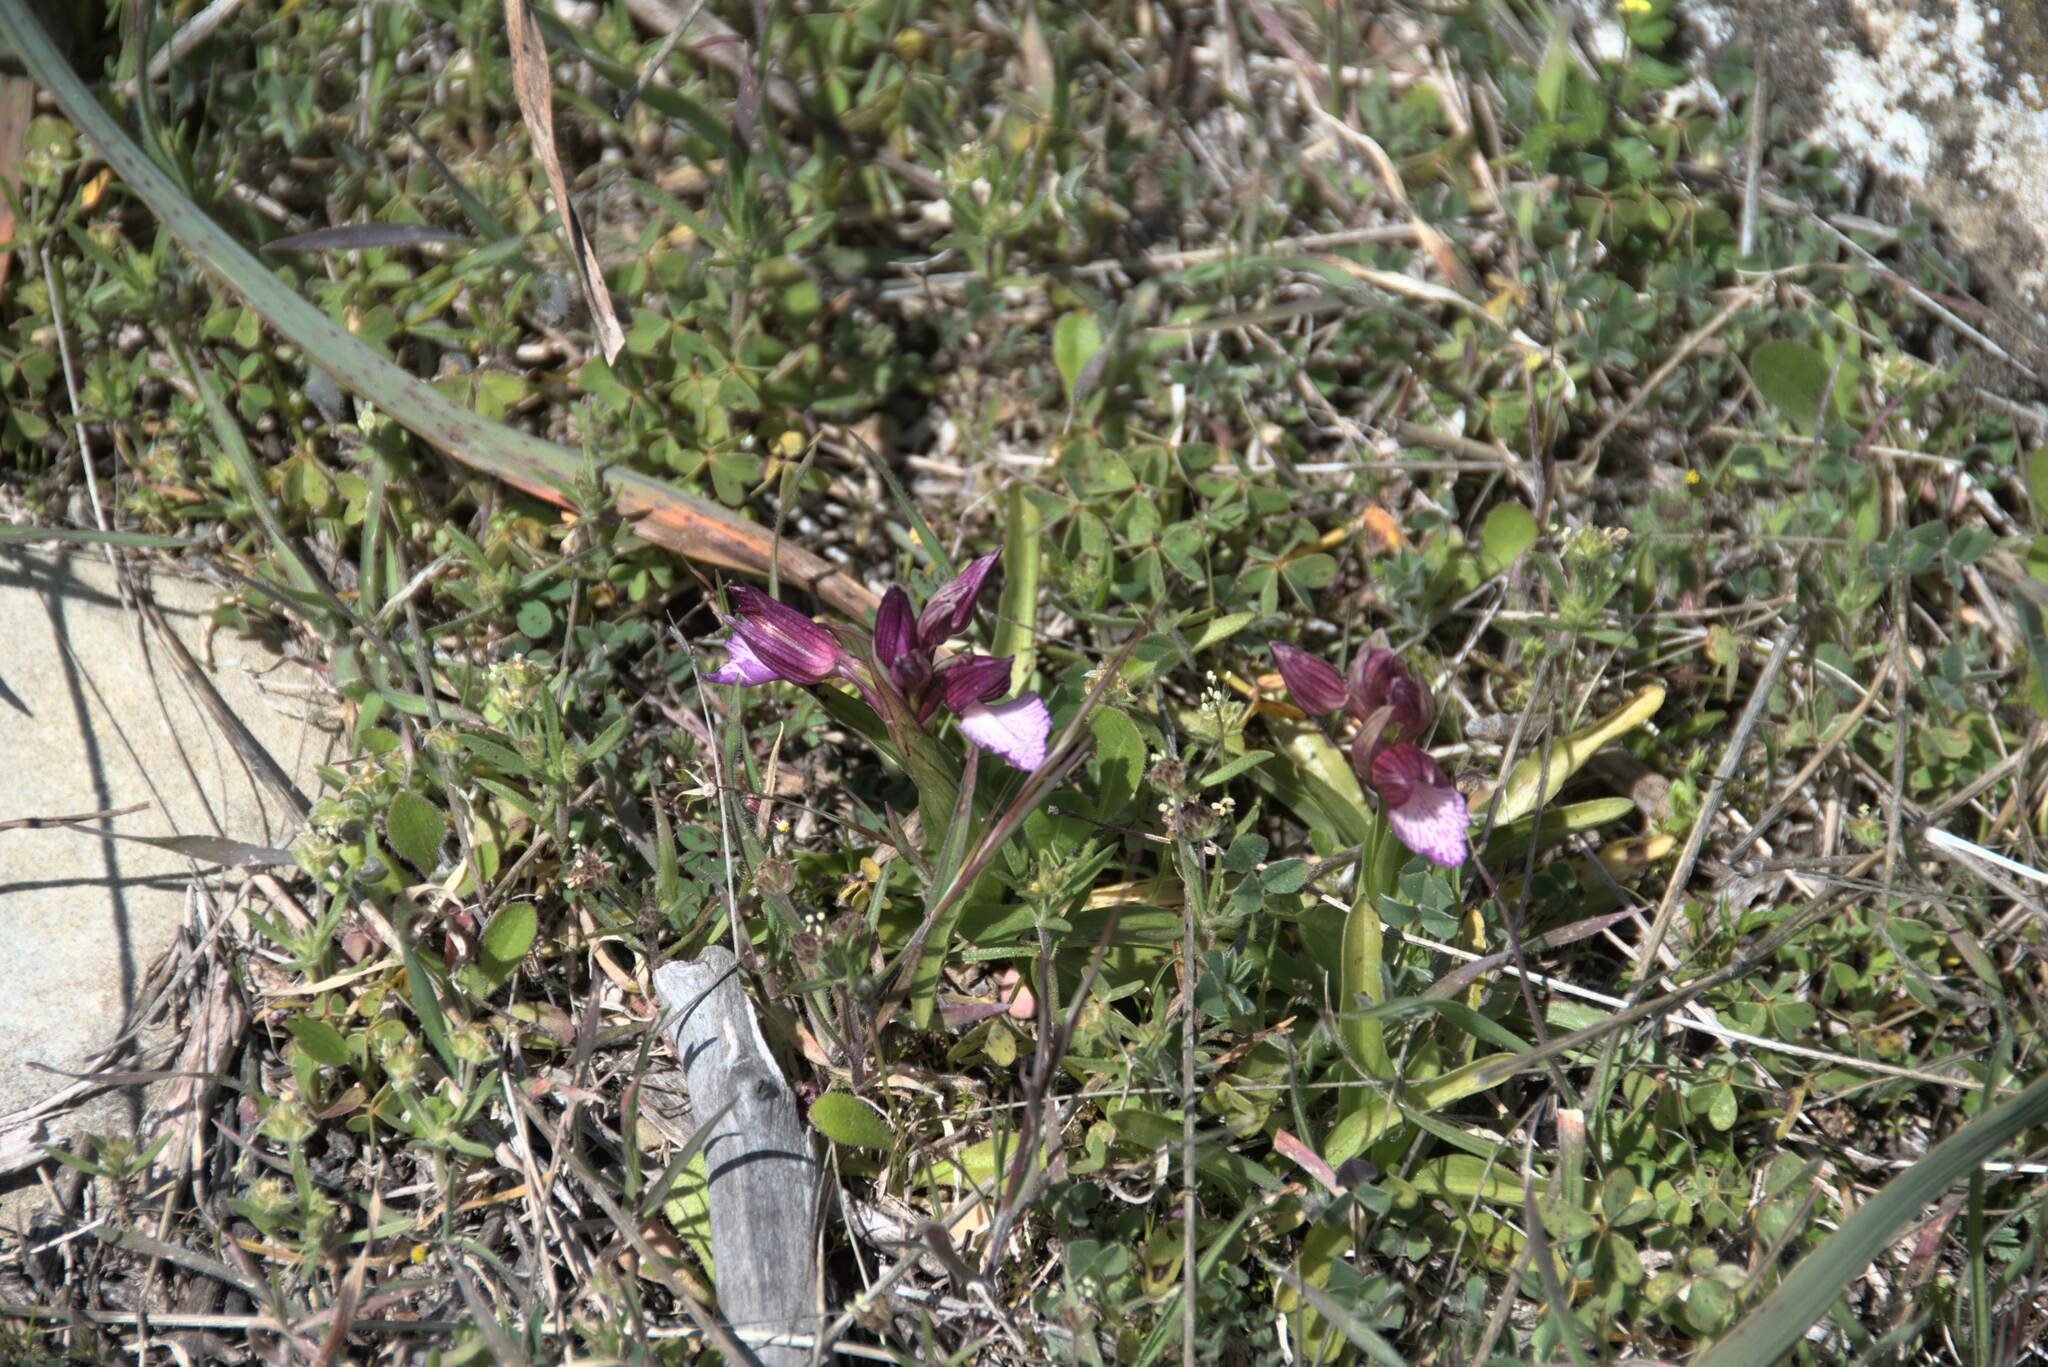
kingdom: Plantae
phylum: Tracheophyta
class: Liliopsida
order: Asparagales
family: Orchidaceae
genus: Anacamptis
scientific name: Anacamptis papilionacea
